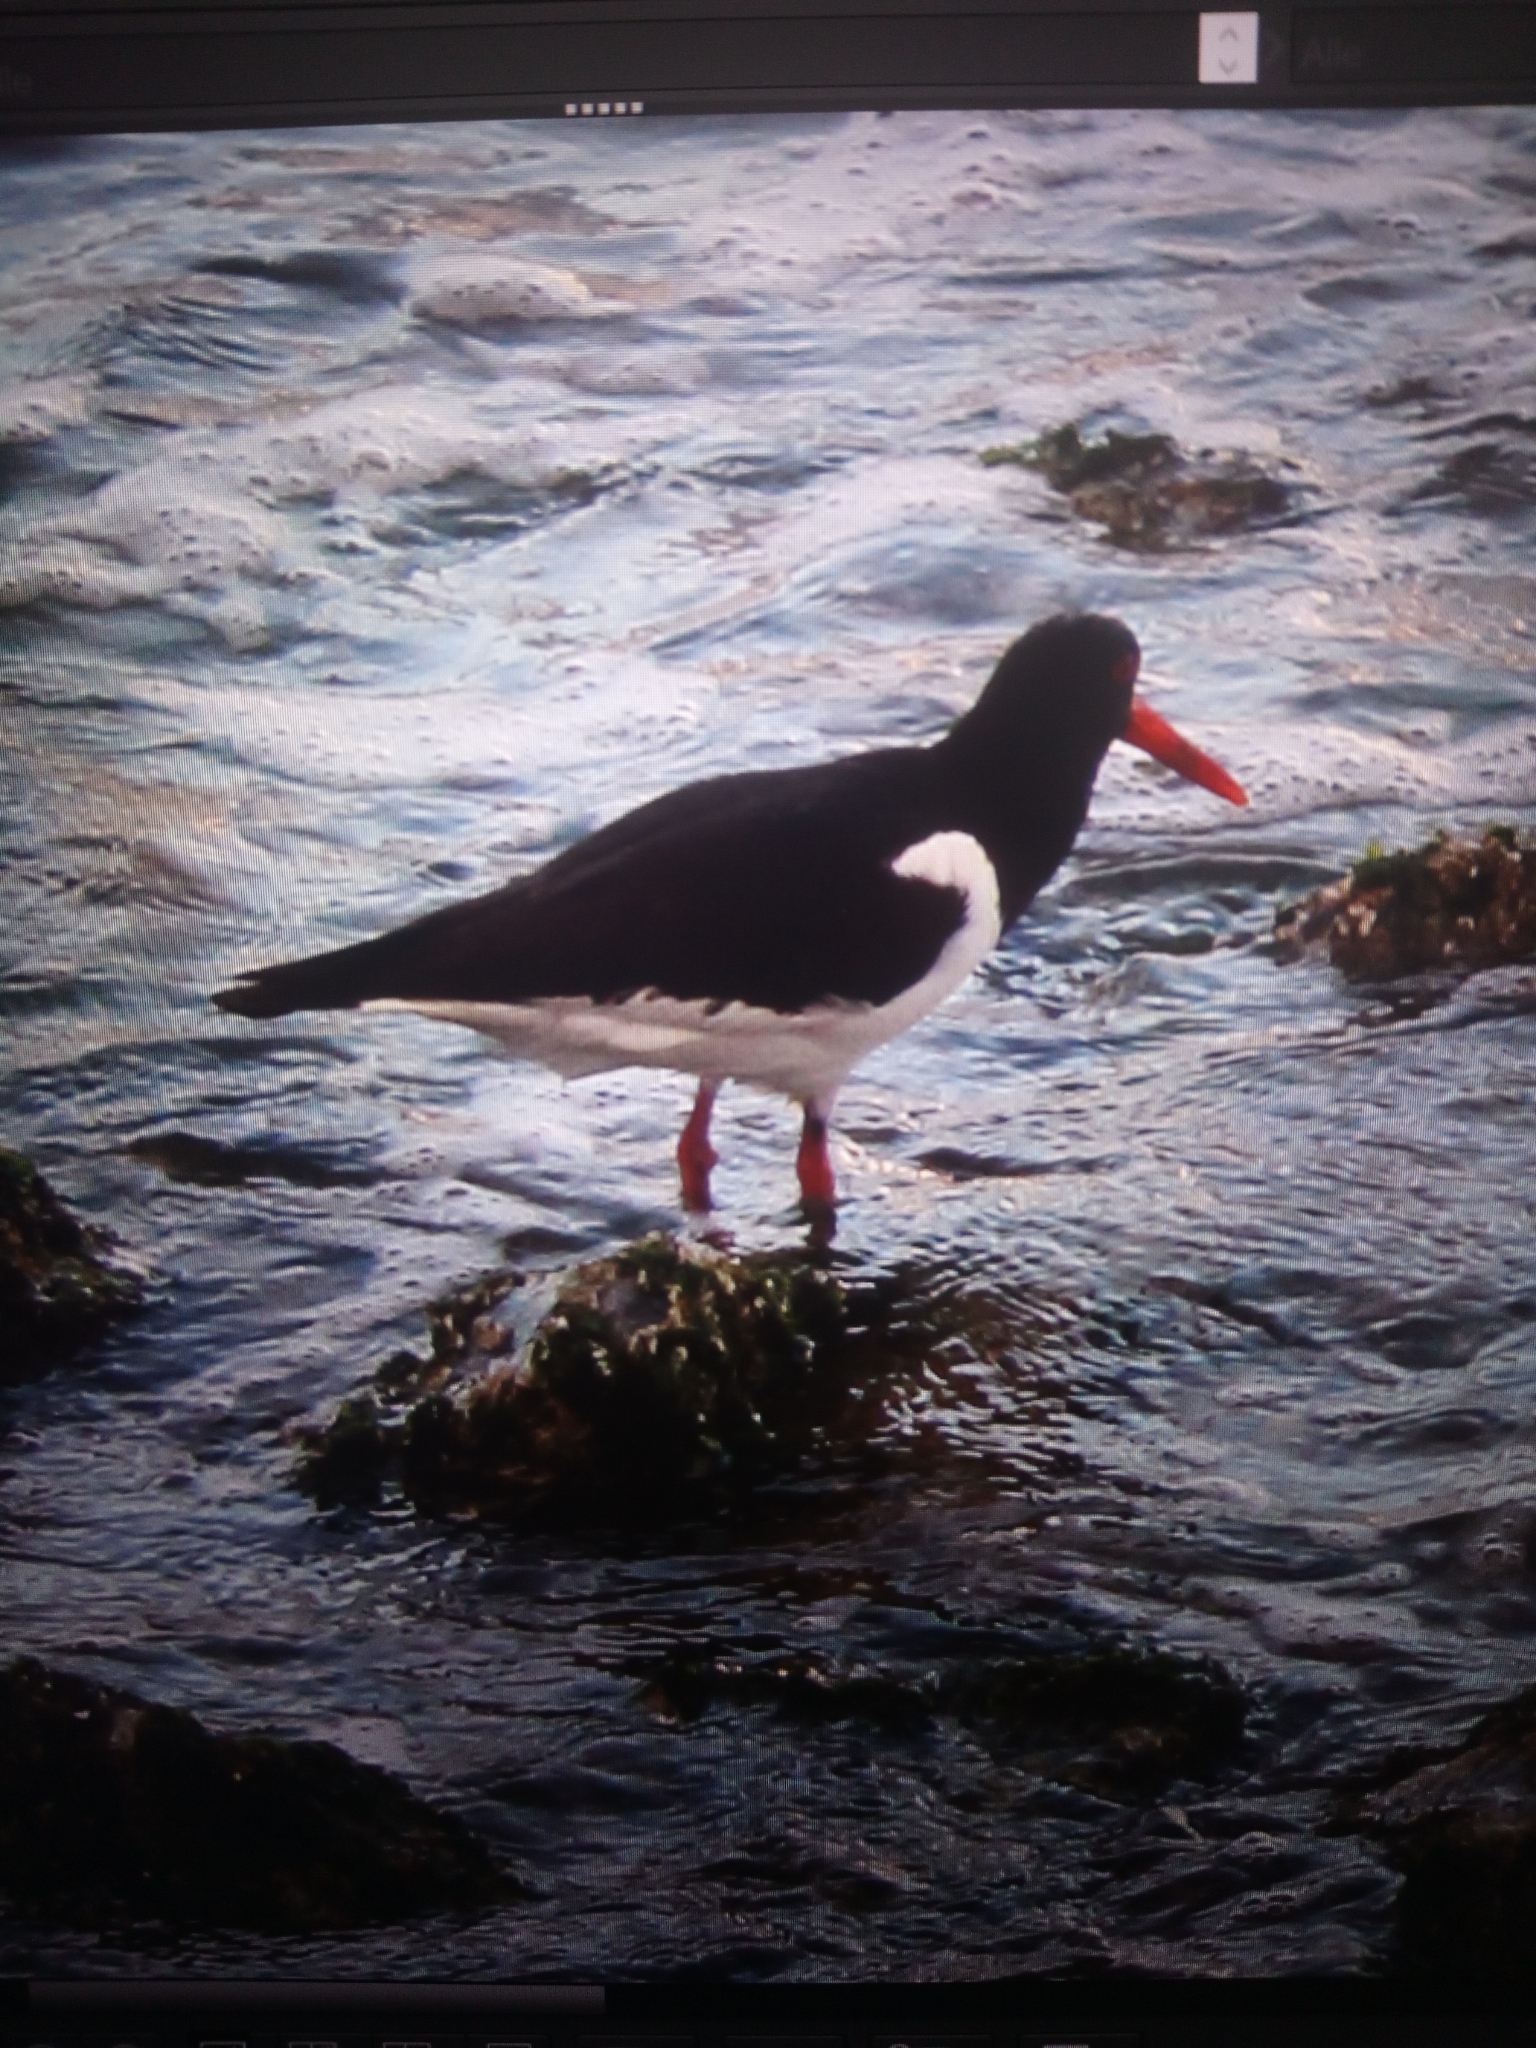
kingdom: Animalia
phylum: Chordata
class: Aves
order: Charadriiformes
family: Haematopodidae
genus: Haematopus
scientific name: Haematopus ostralegus
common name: Eurasian oystercatcher
